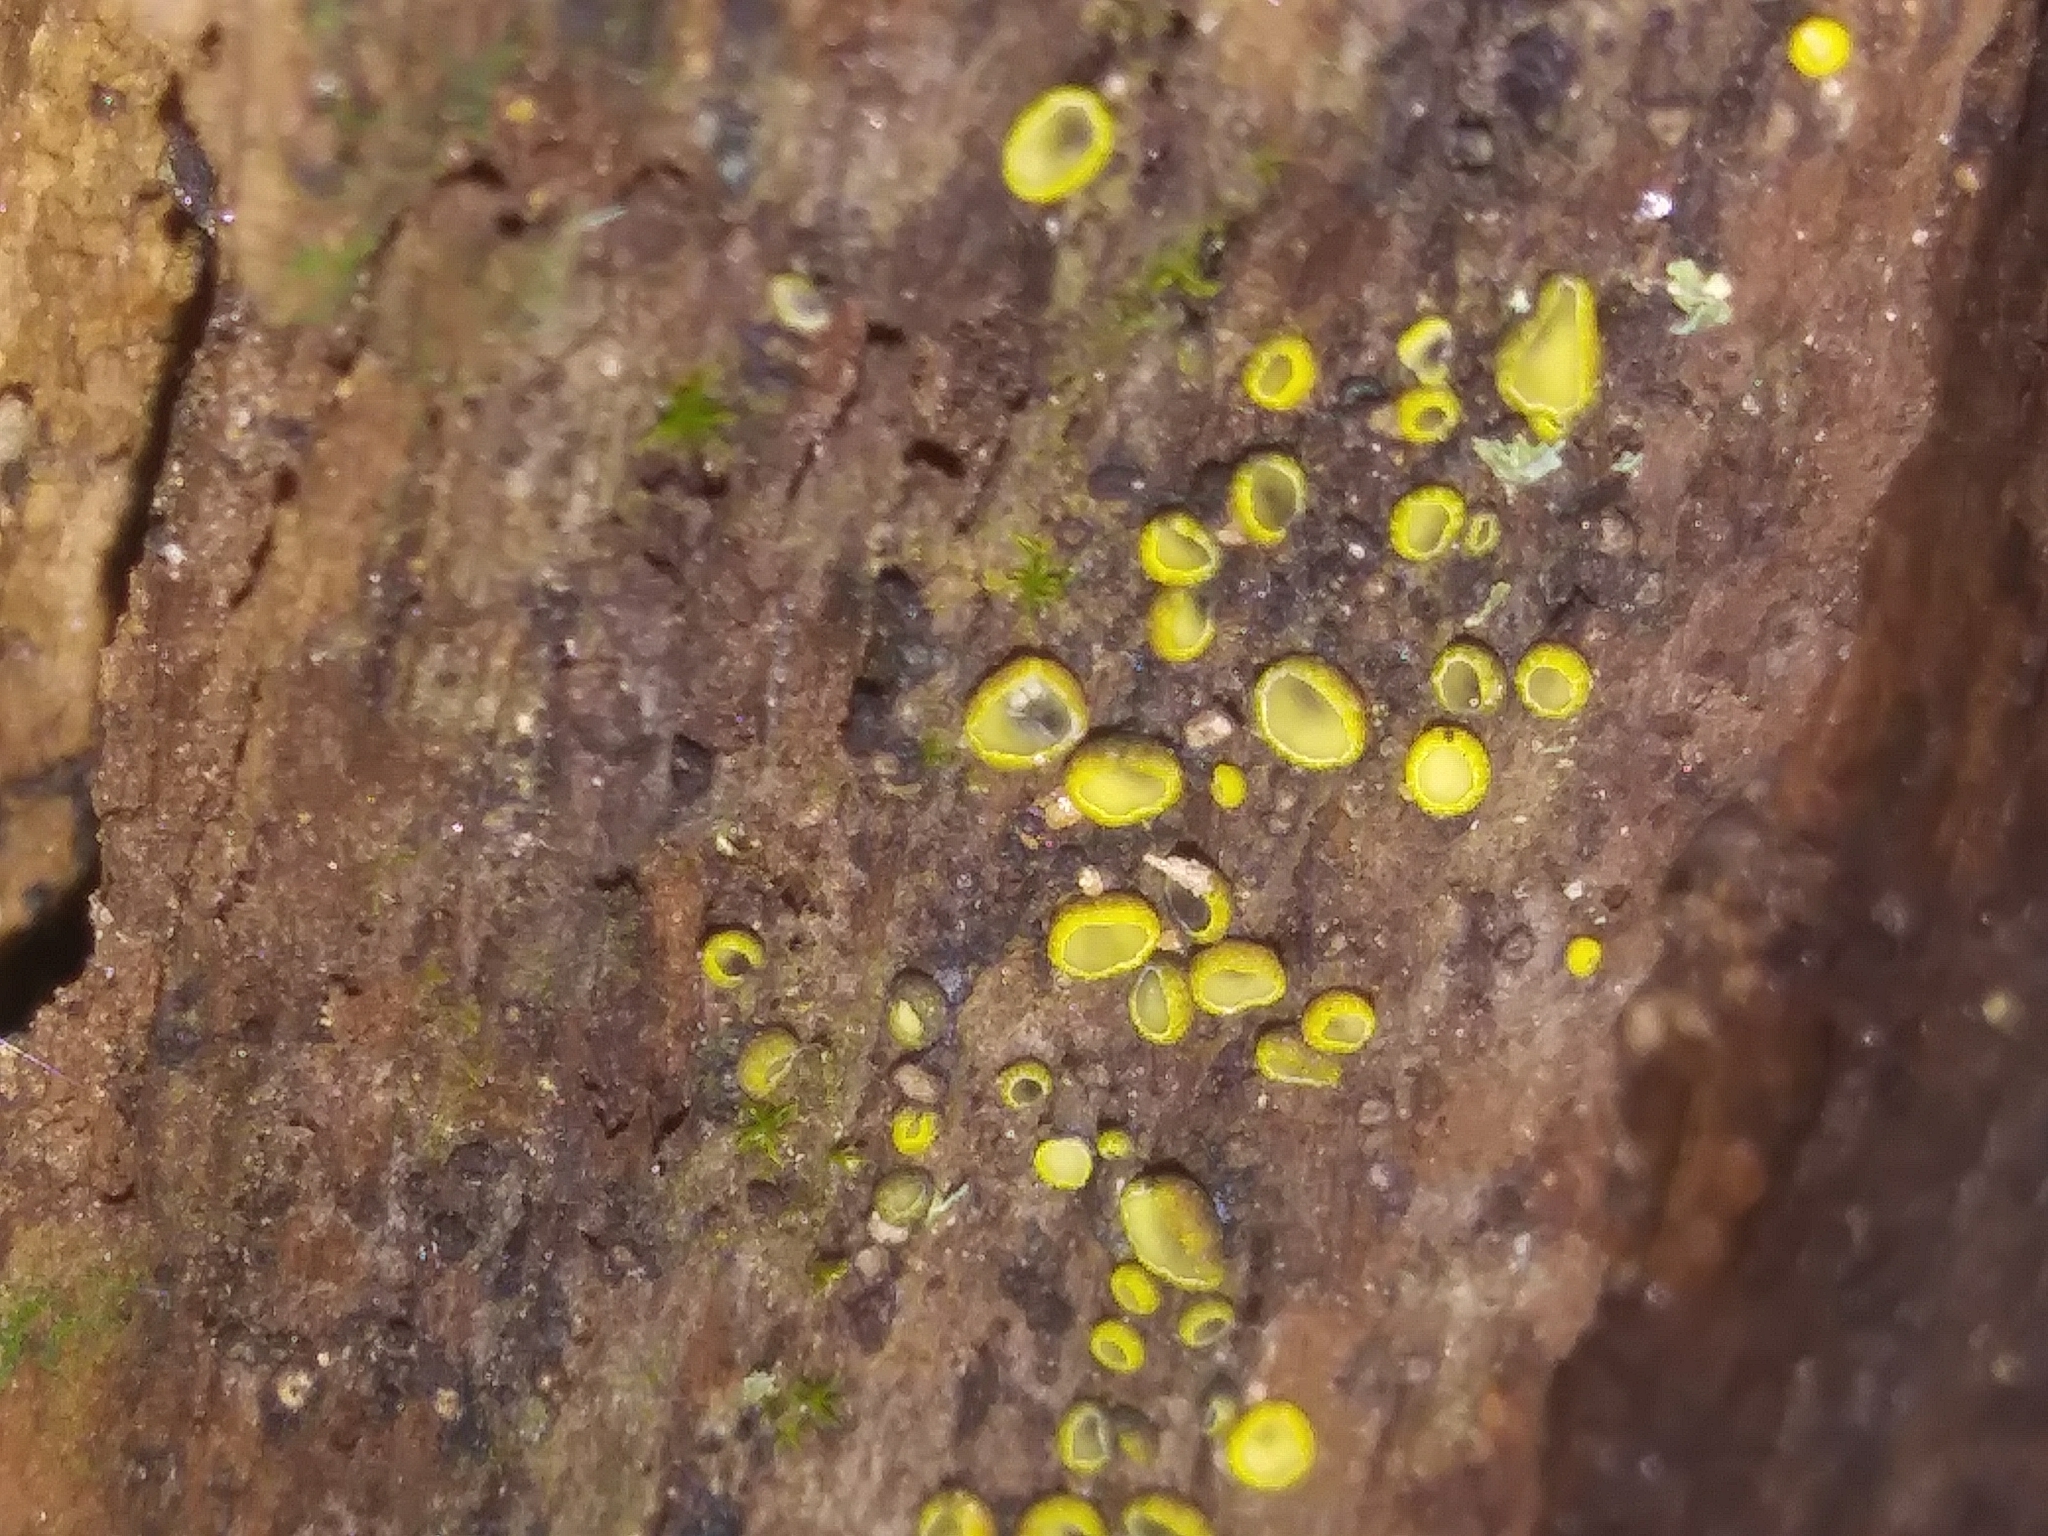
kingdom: Fungi
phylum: Ascomycota
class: Leotiomycetes
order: Helotiales
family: Chlorospleniaceae
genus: Chlorosplenium
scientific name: Chlorosplenium chlora
